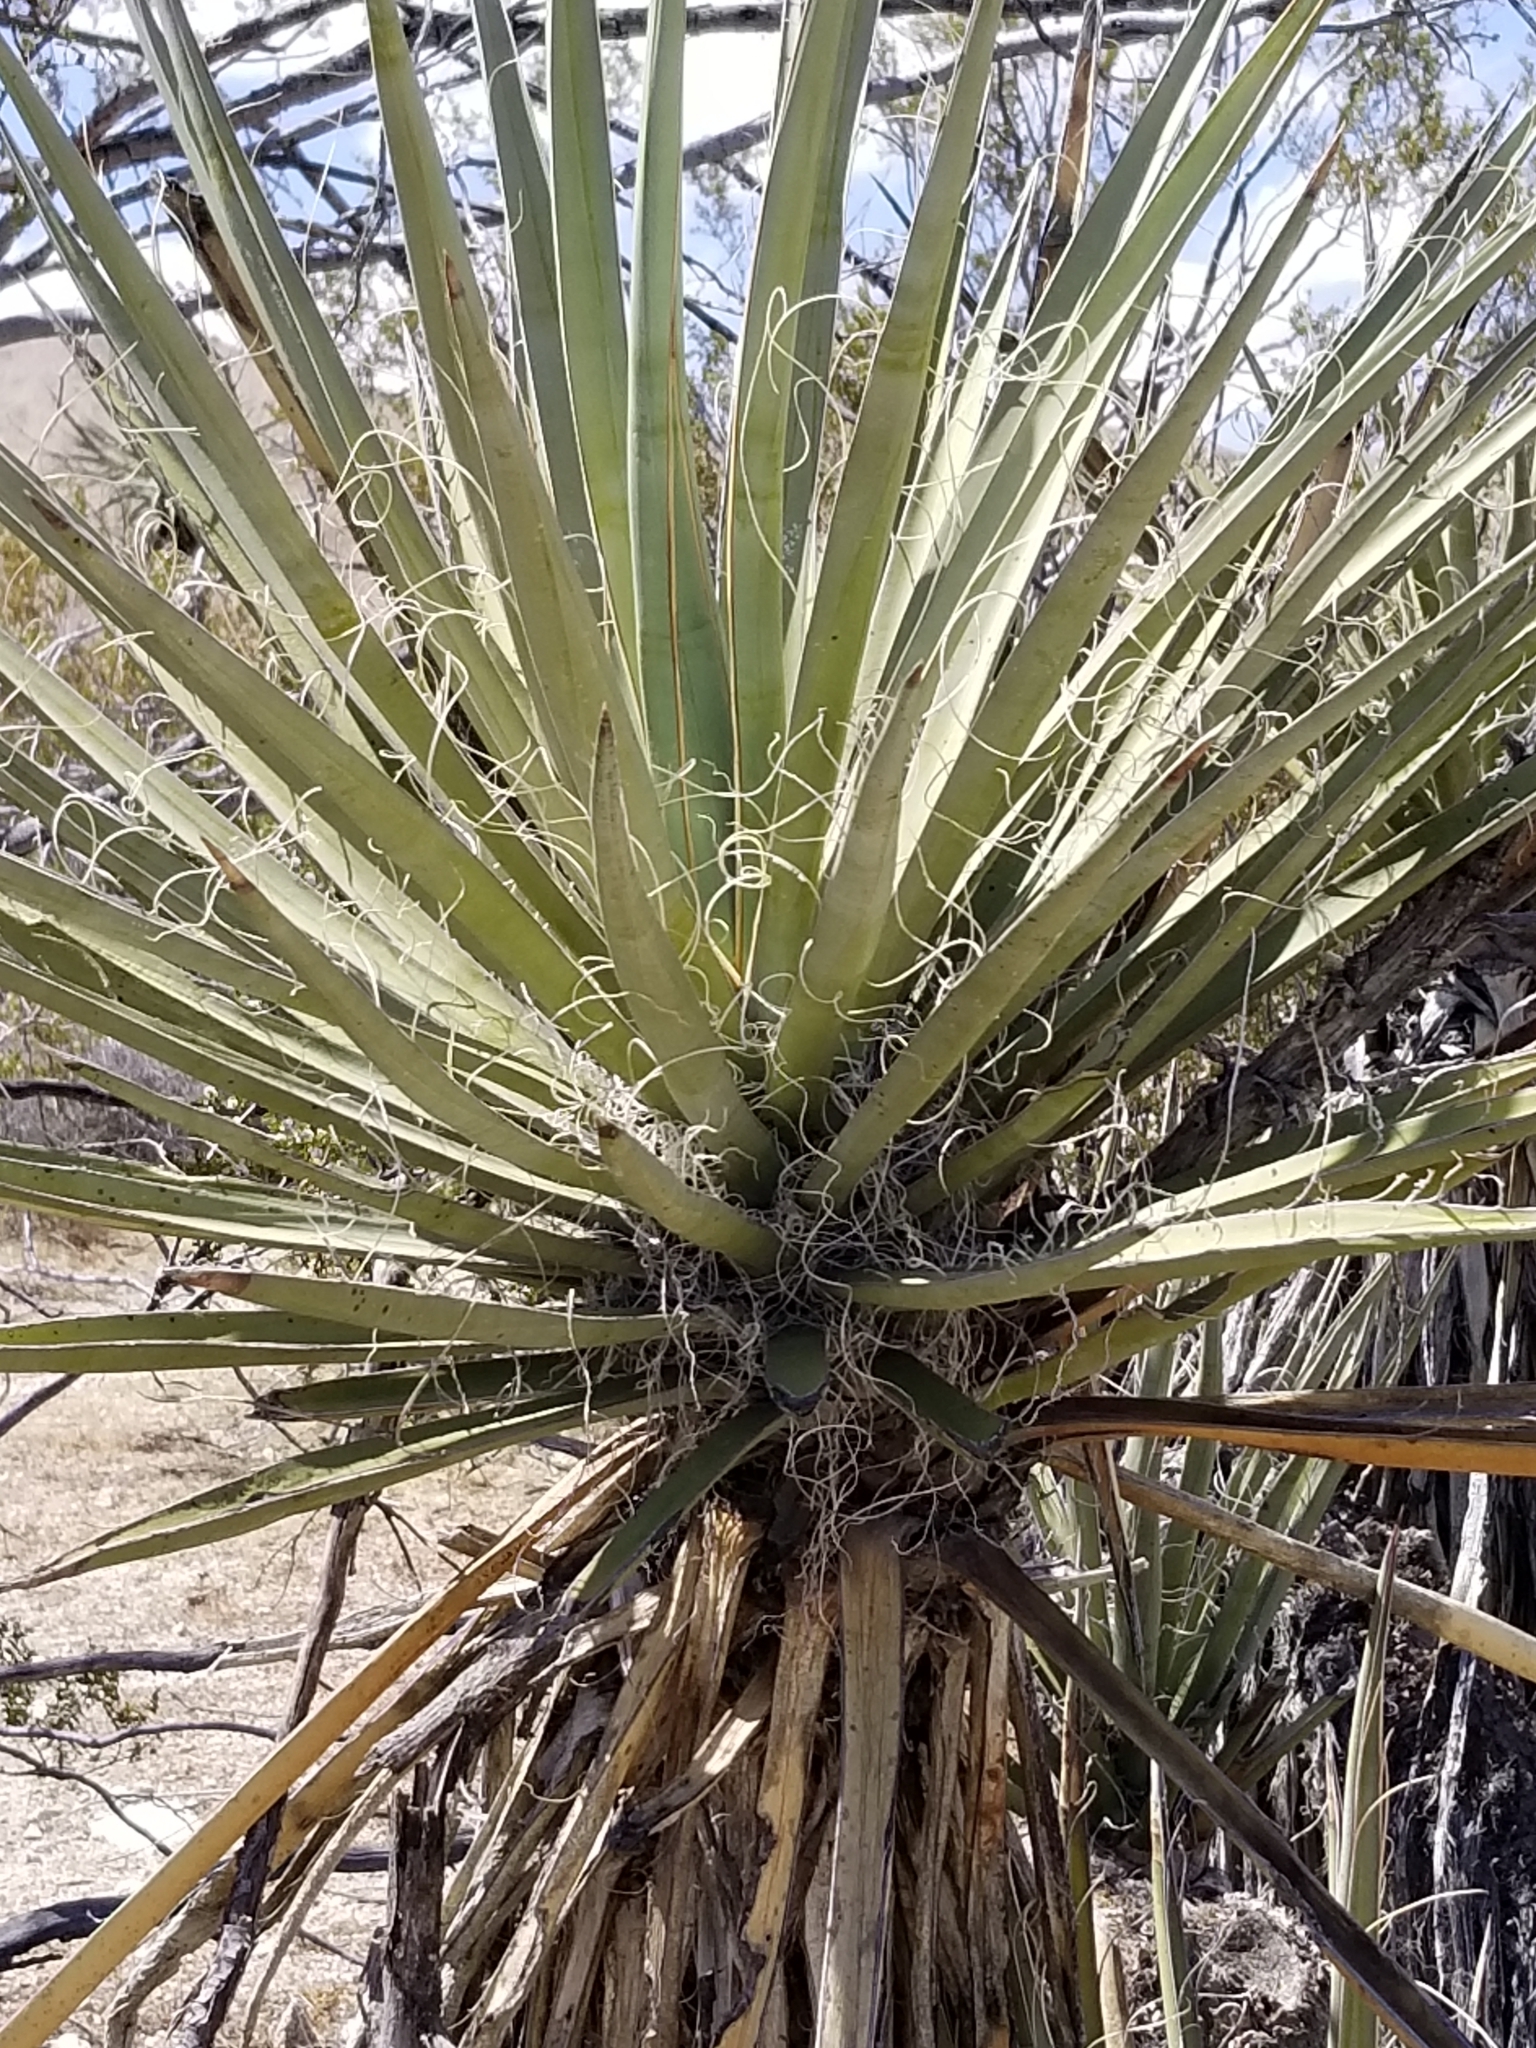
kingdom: Plantae
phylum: Tracheophyta
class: Liliopsida
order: Asparagales
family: Asparagaceae
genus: Yucca
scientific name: Yucca schidigera
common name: Mojave yucca
